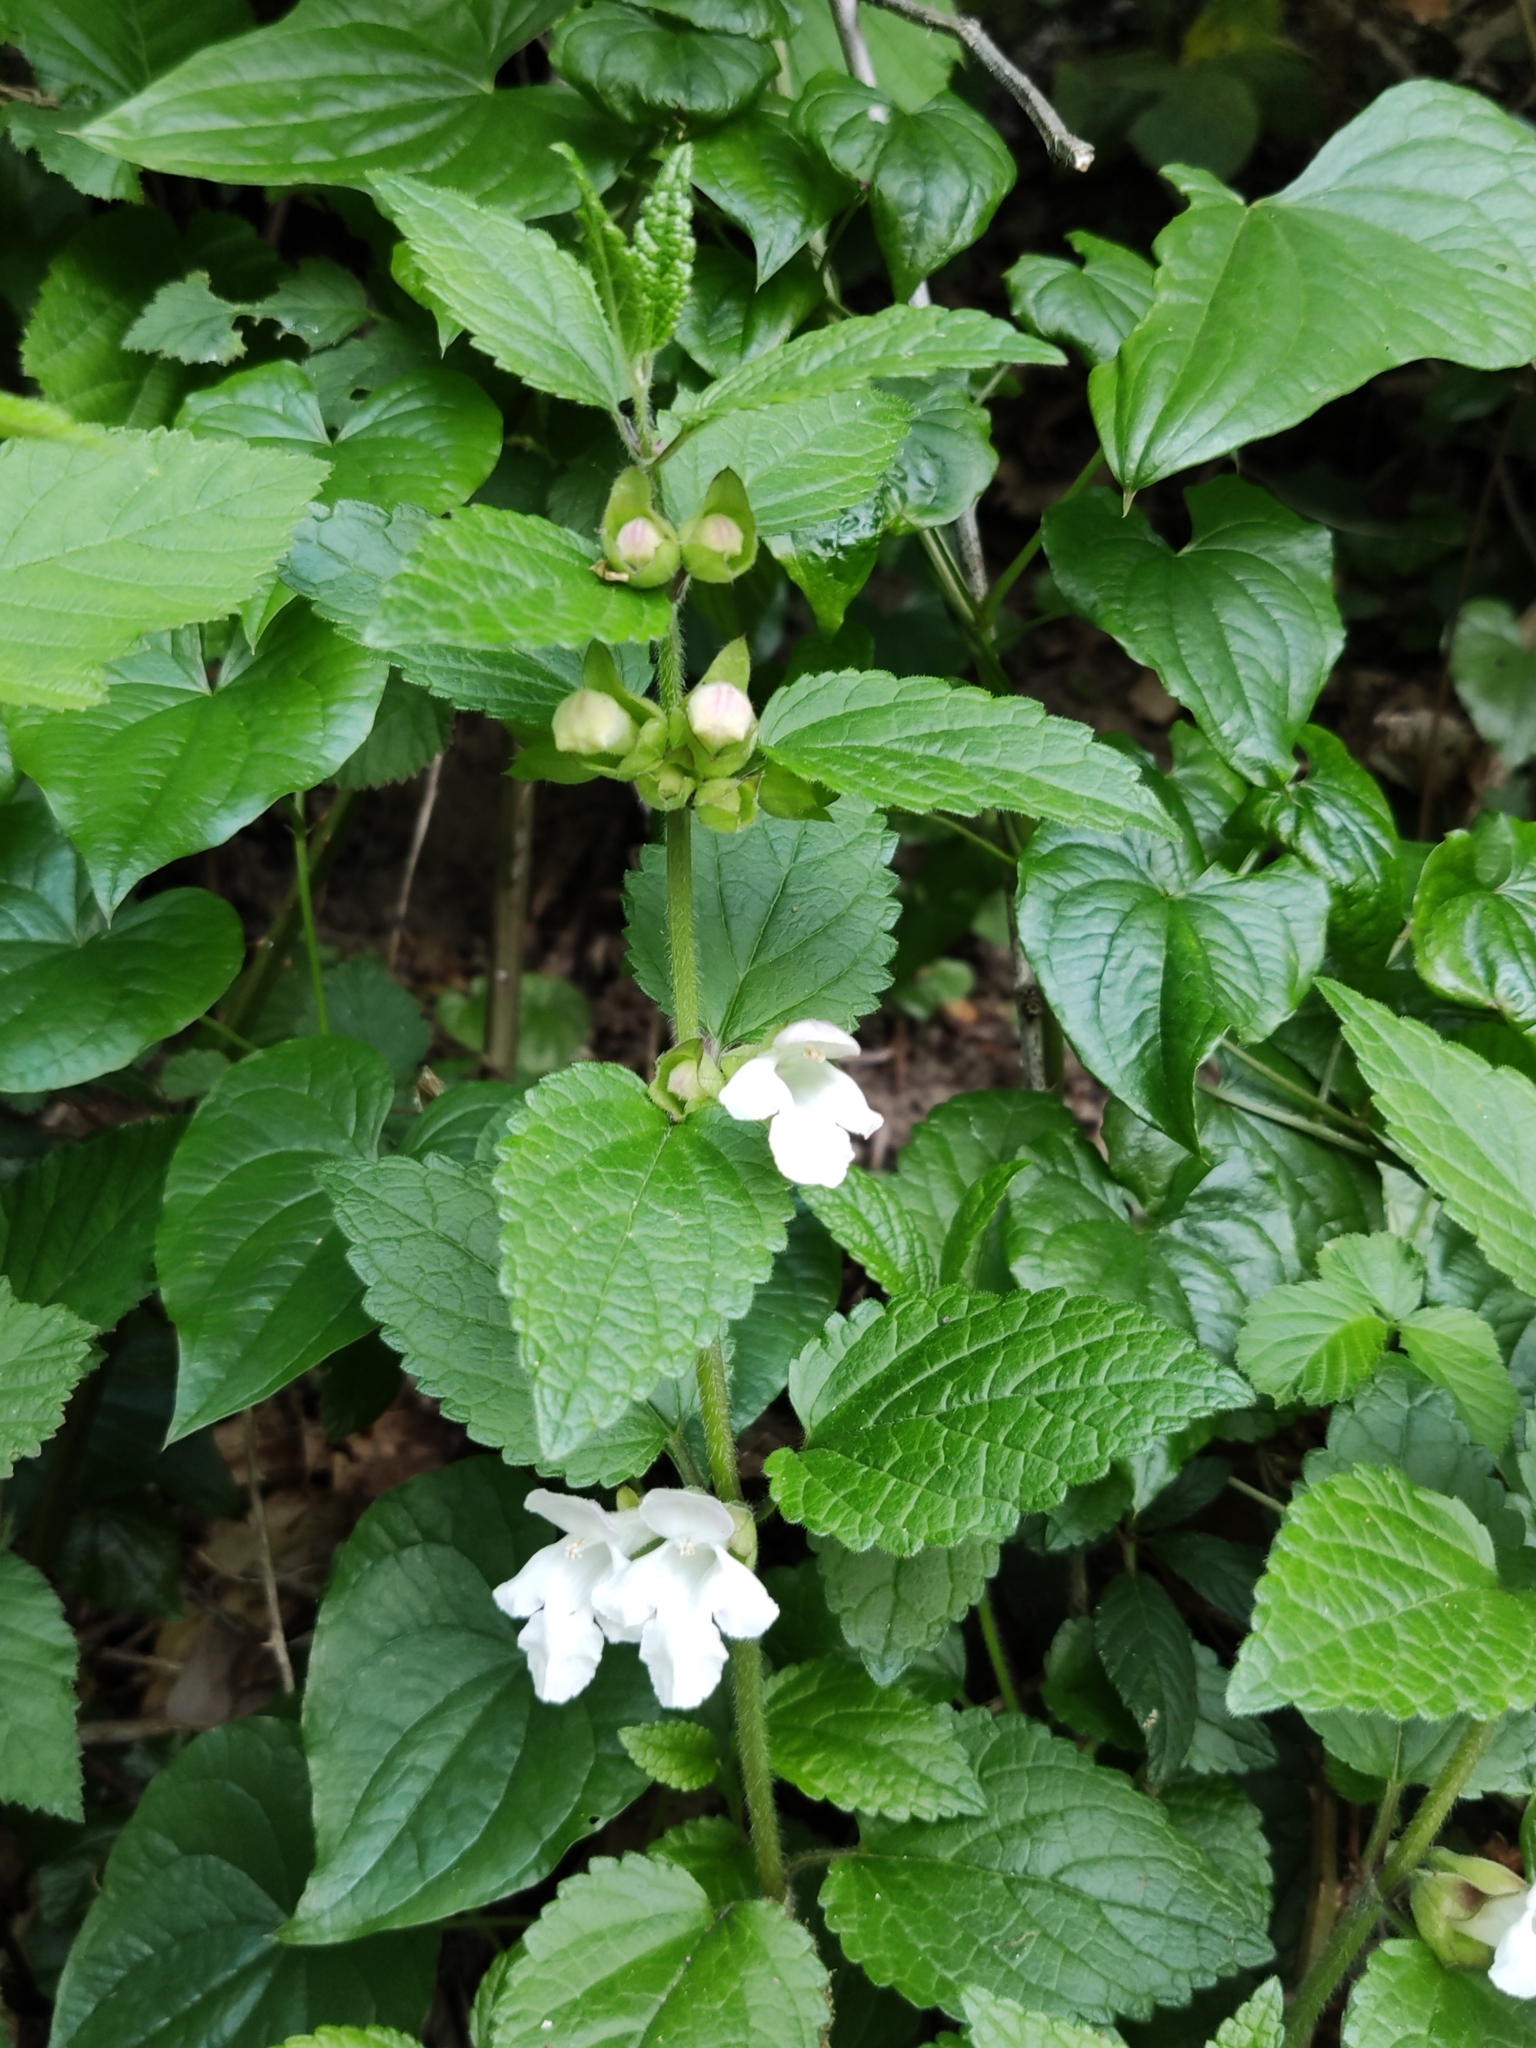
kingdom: Plantae
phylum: Tracheophyta
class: Magnoliopsida
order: Lamiales
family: Lamiaceae
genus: Melittis
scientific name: Melittis melissophyllum
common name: Bastard balm
